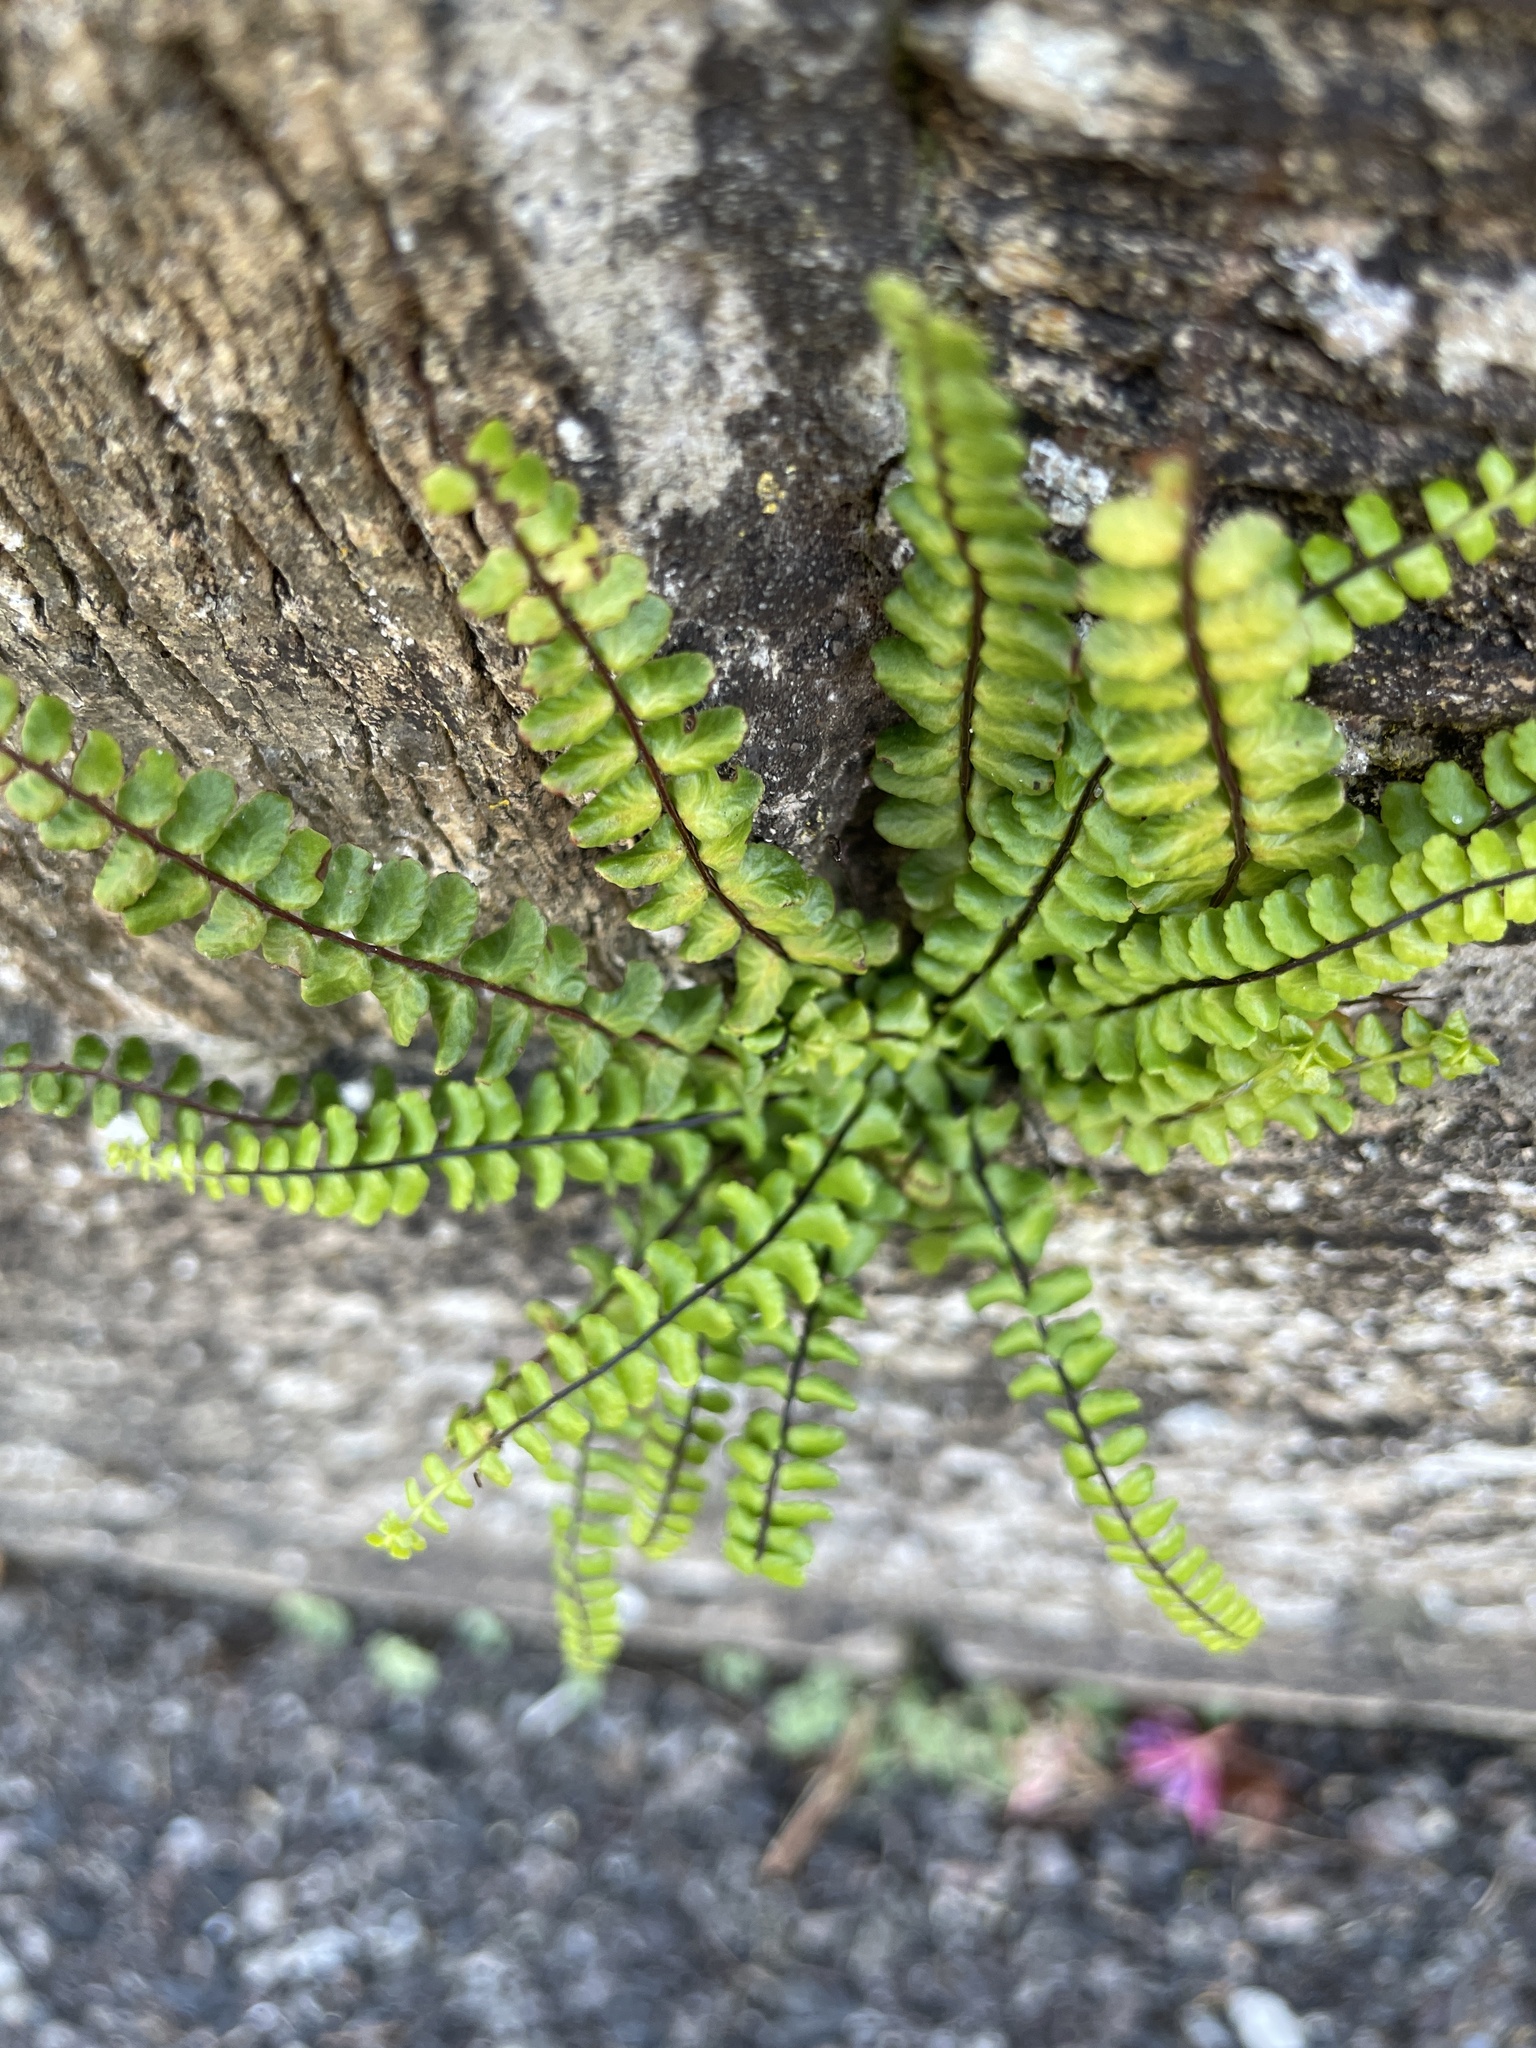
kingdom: Plantae
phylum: Tracheophyta
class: Polypodiopsida
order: Polypodiales
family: Aspleniaceae
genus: Asplenium
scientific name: Asplenium trichomanes
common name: Maidenhair spleenwort
